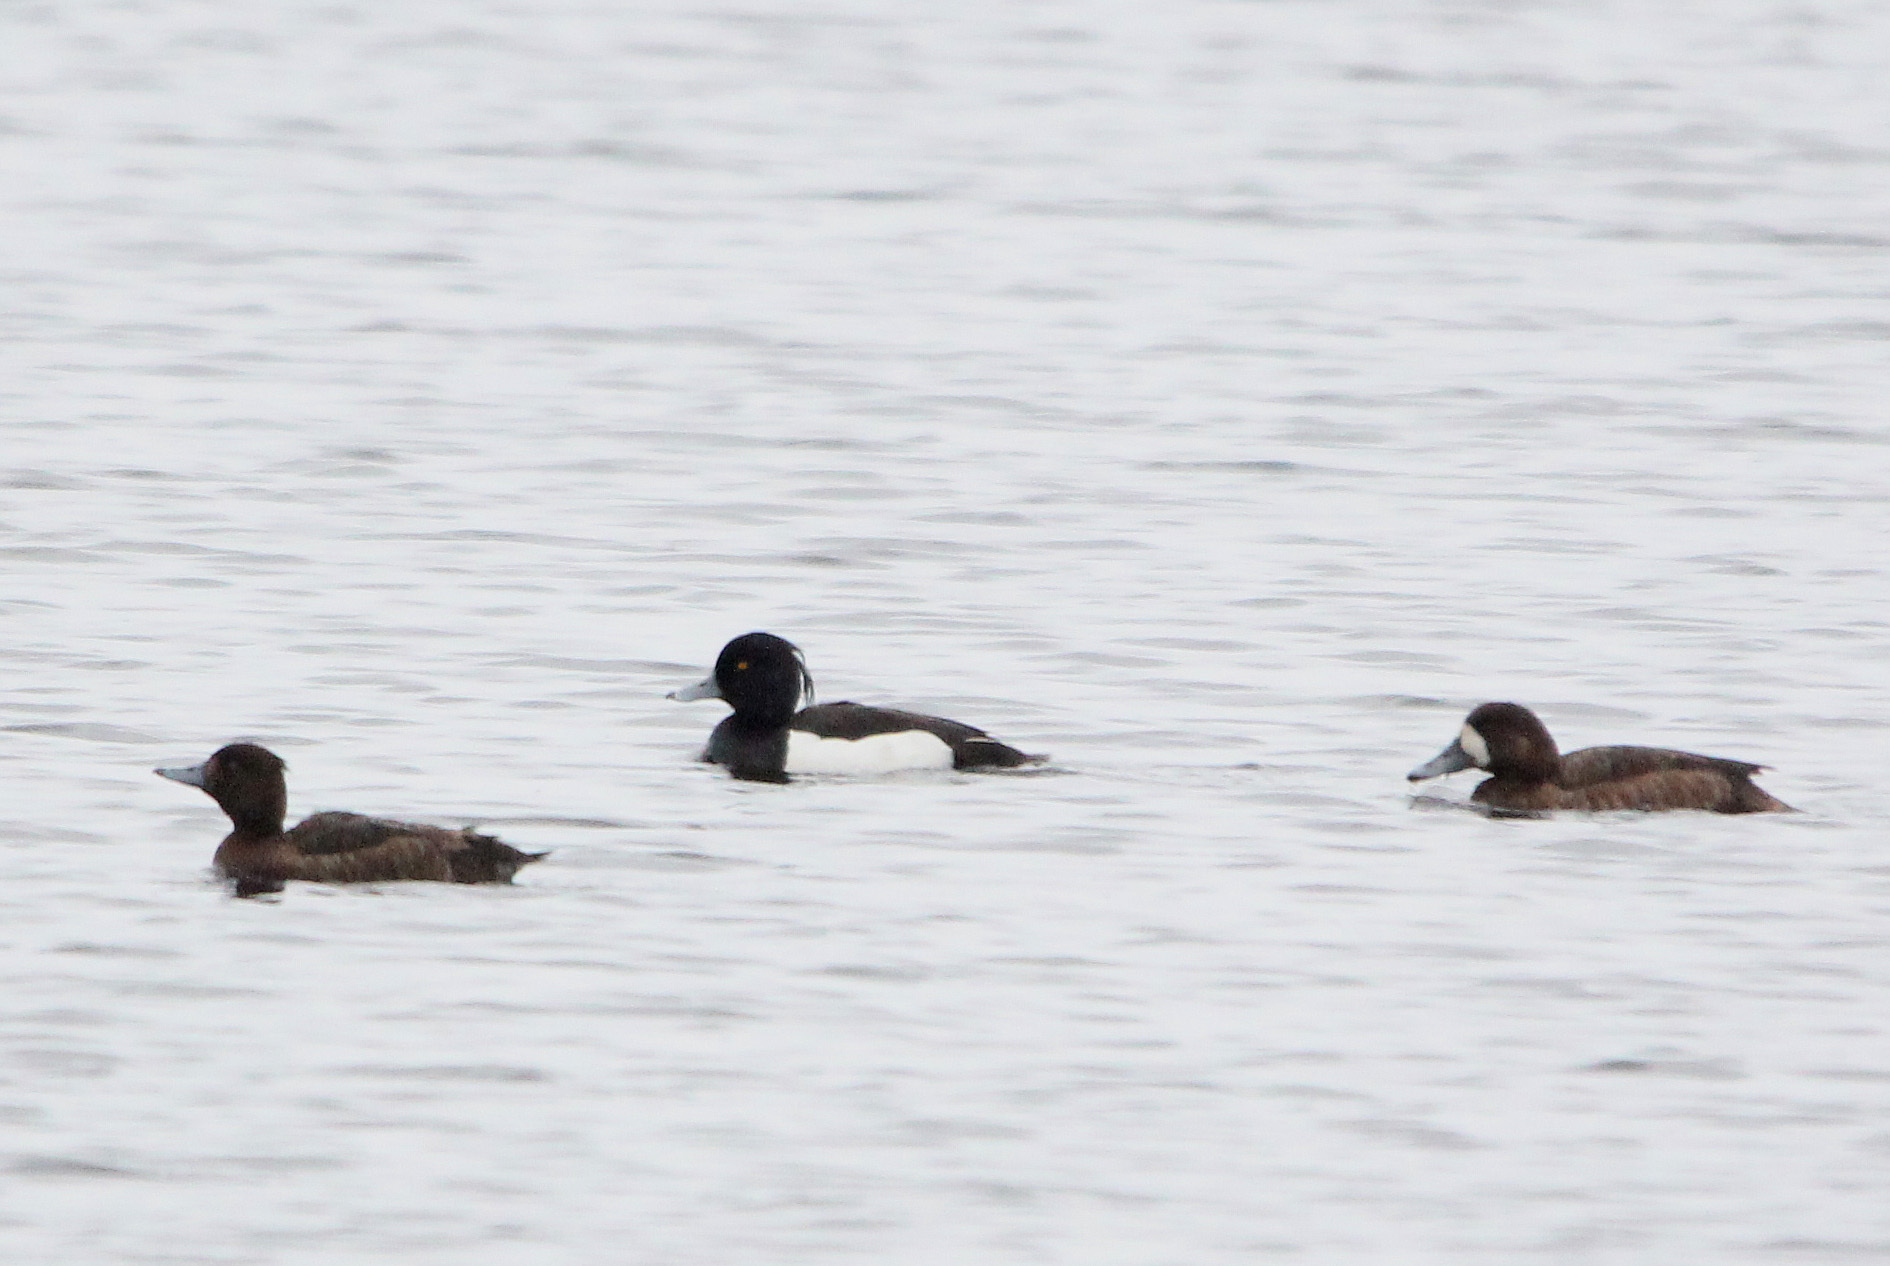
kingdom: Animalia
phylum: Chordata
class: Aves
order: Anseriformes
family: Anatidae
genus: Aythya
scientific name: Aythya fuligula
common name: Tufted duck
